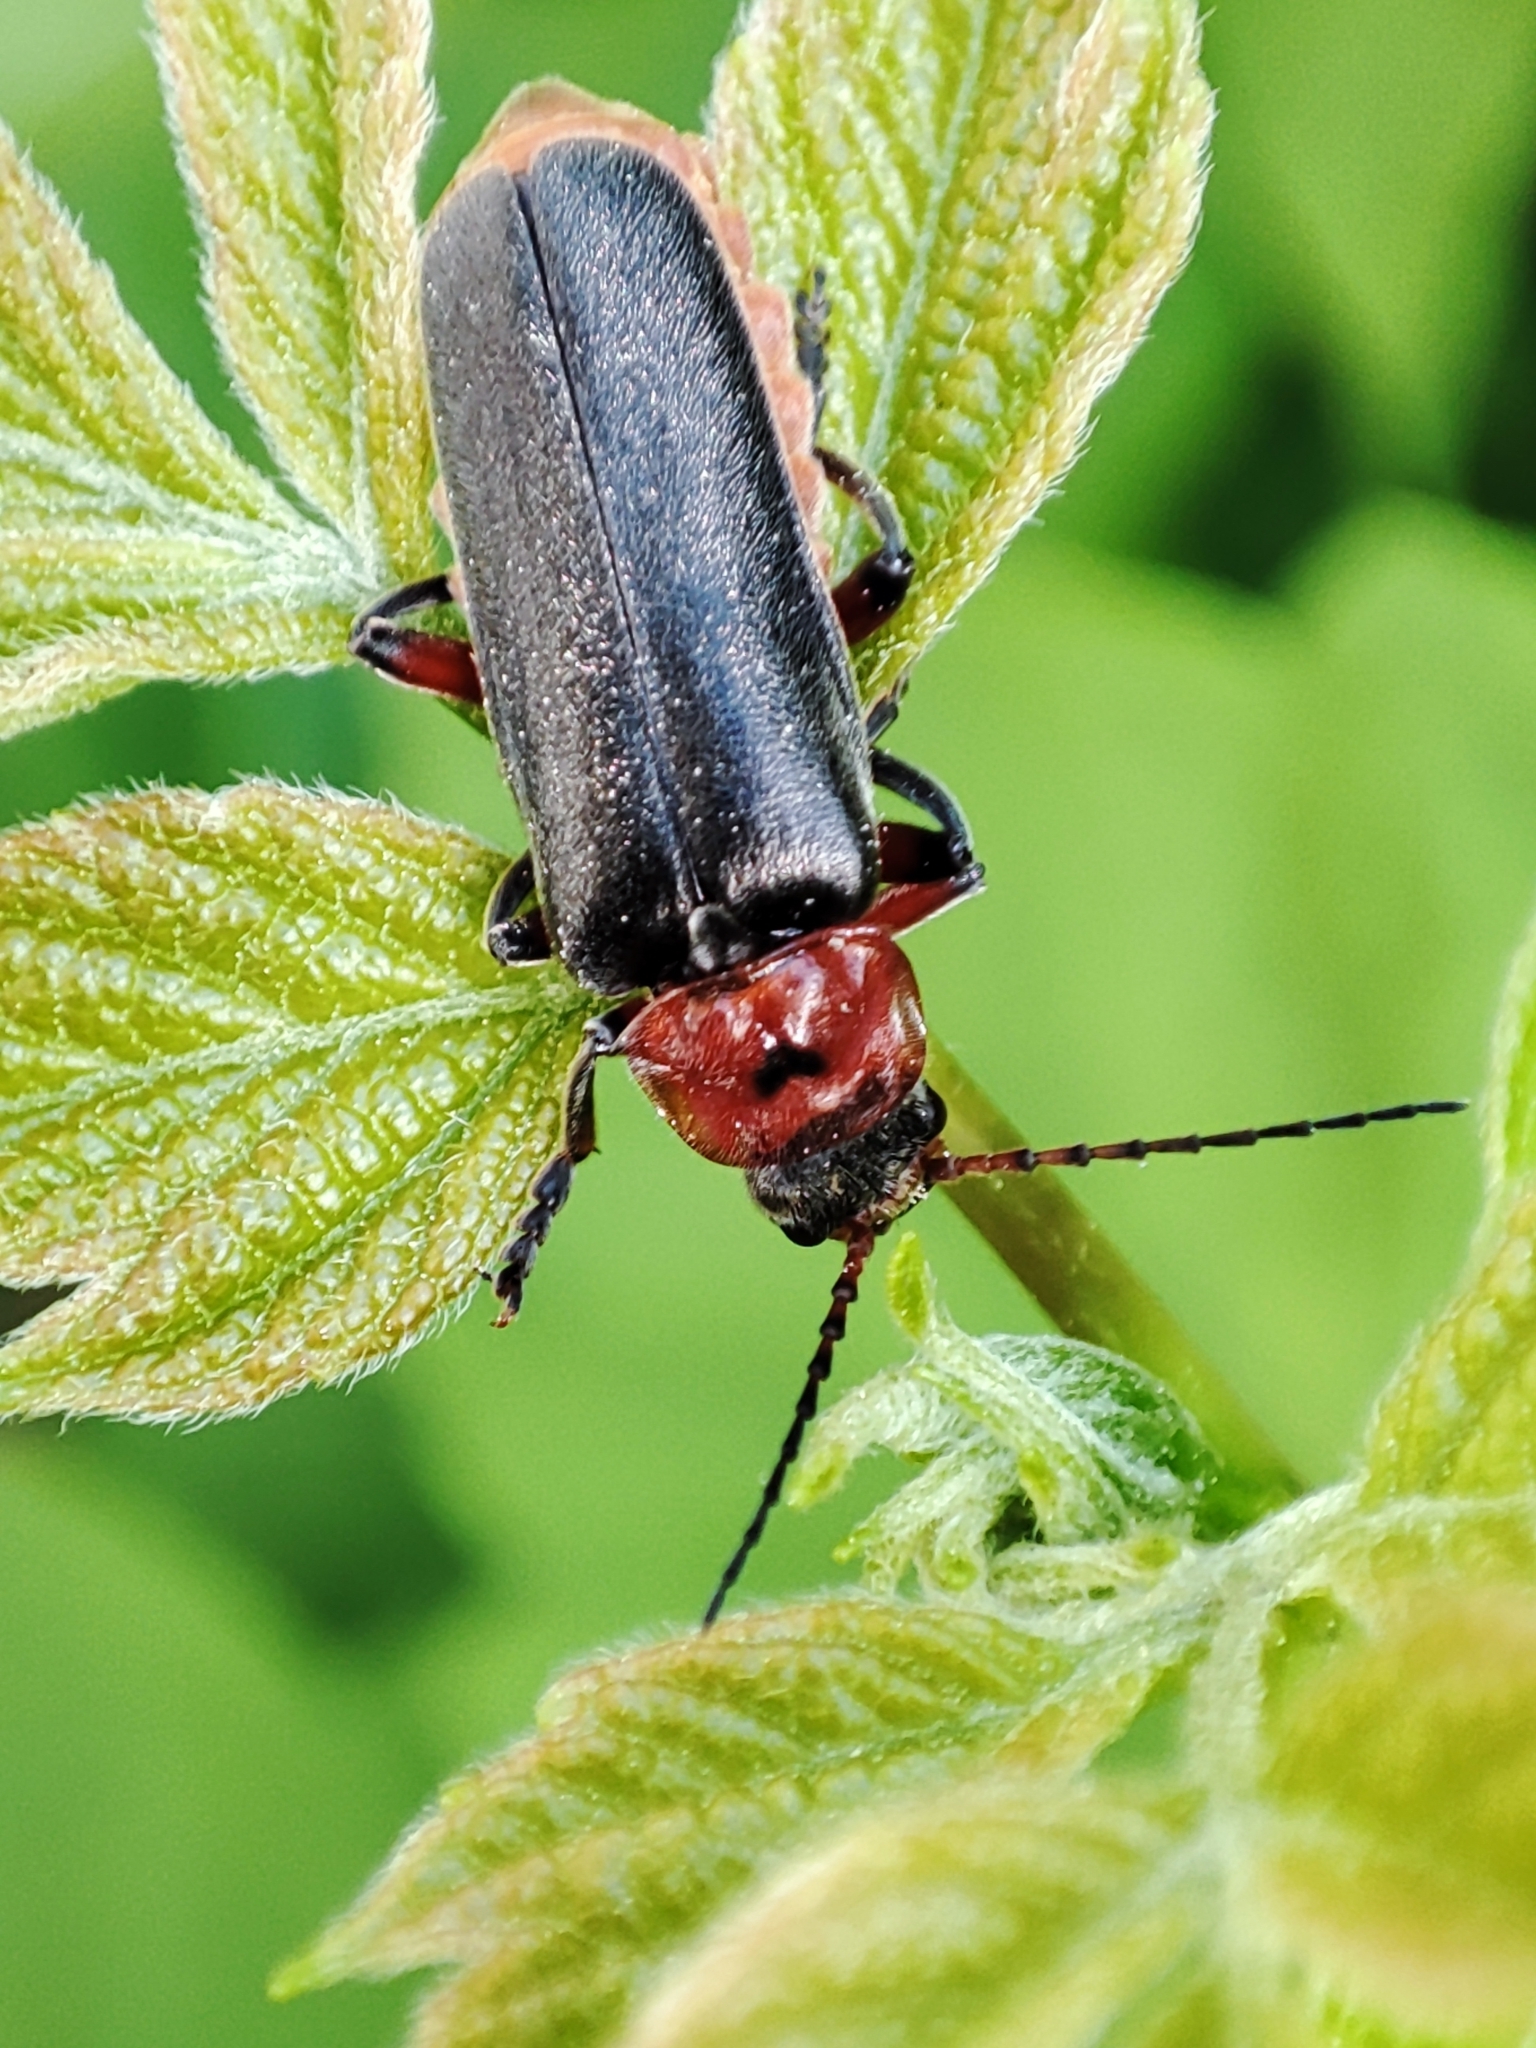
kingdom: Animalia
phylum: Arthropoda
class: Insecta
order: Coleoptera
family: Cantharidae
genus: Cantharis
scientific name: Cantharis rustica
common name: Soldier beetle
